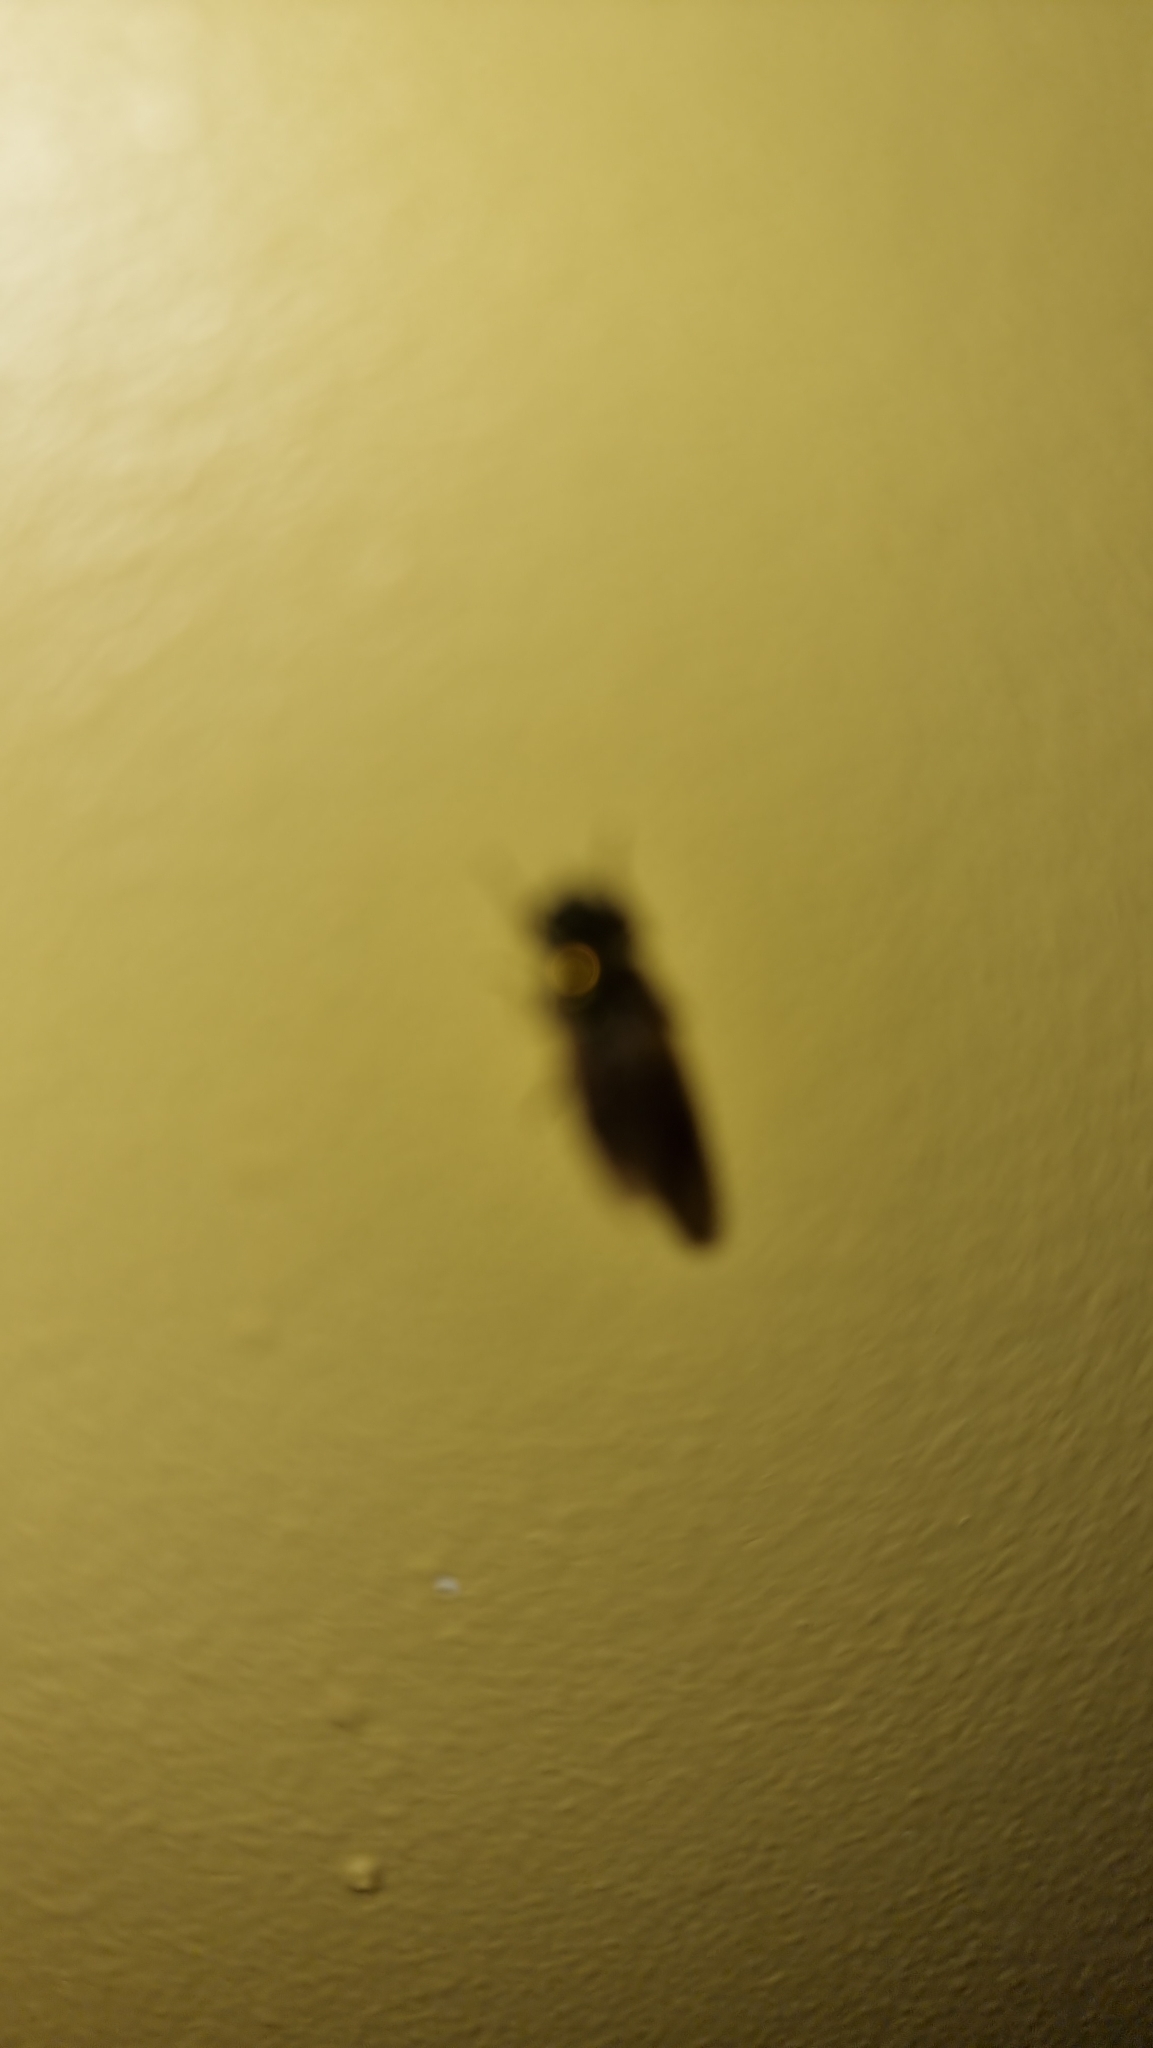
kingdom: Animalia
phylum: Arthropoda
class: Insecta
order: Diptera
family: Stratiomyidae
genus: Chloromyia
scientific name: Chloromyia formosa
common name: Soldier fly
